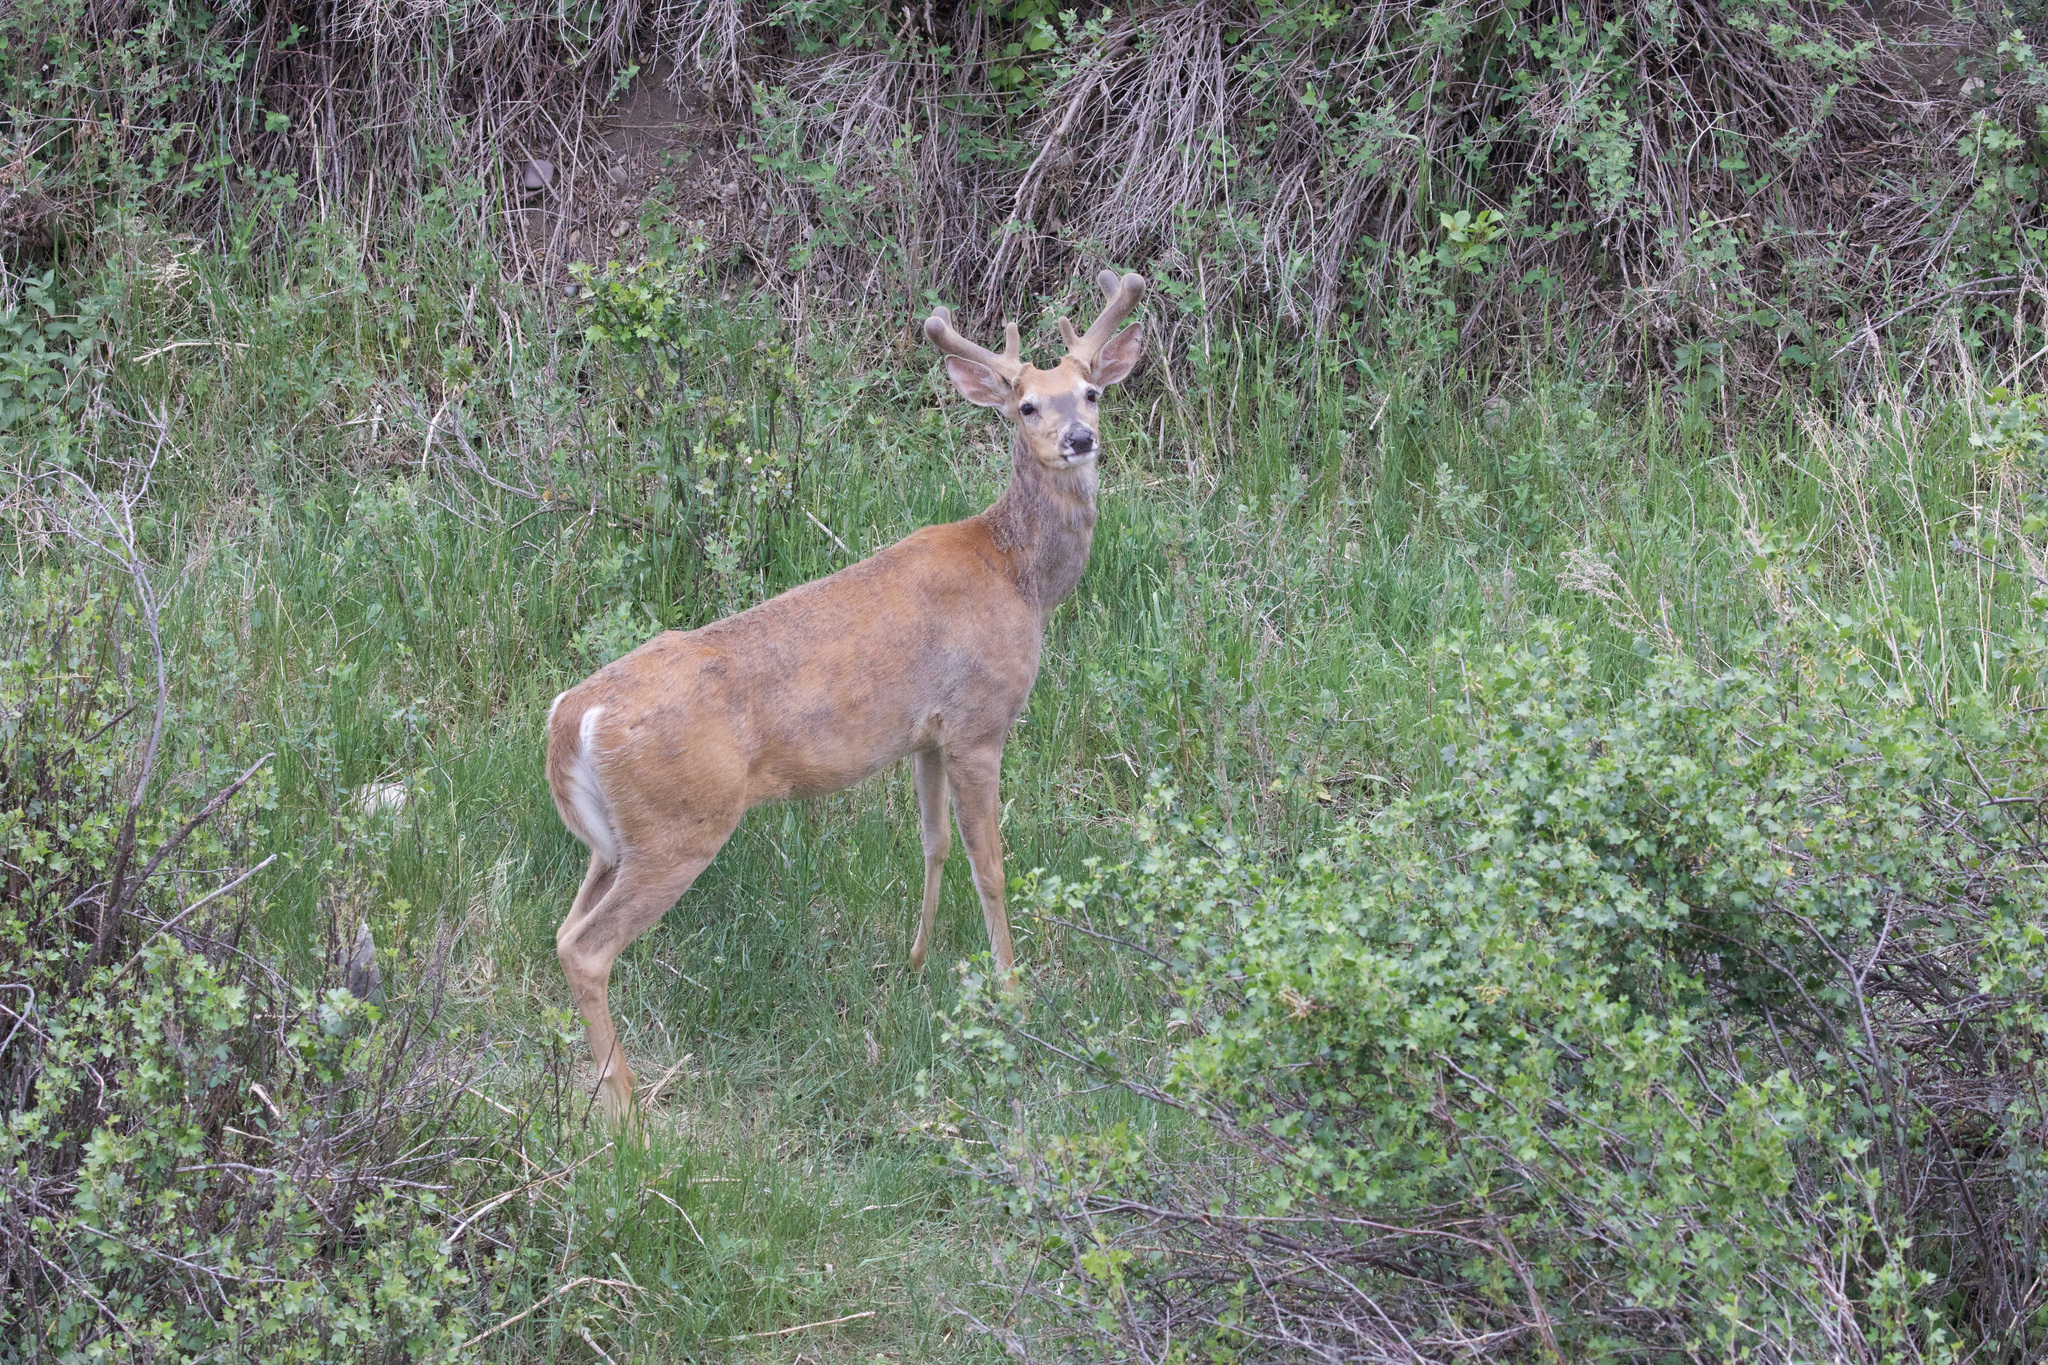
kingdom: Animalia
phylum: Chordata
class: Mammalia
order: Artiodactyla
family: Cervidae
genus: Odocoileus
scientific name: Odocoileus virginianus
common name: White-tailed deer
